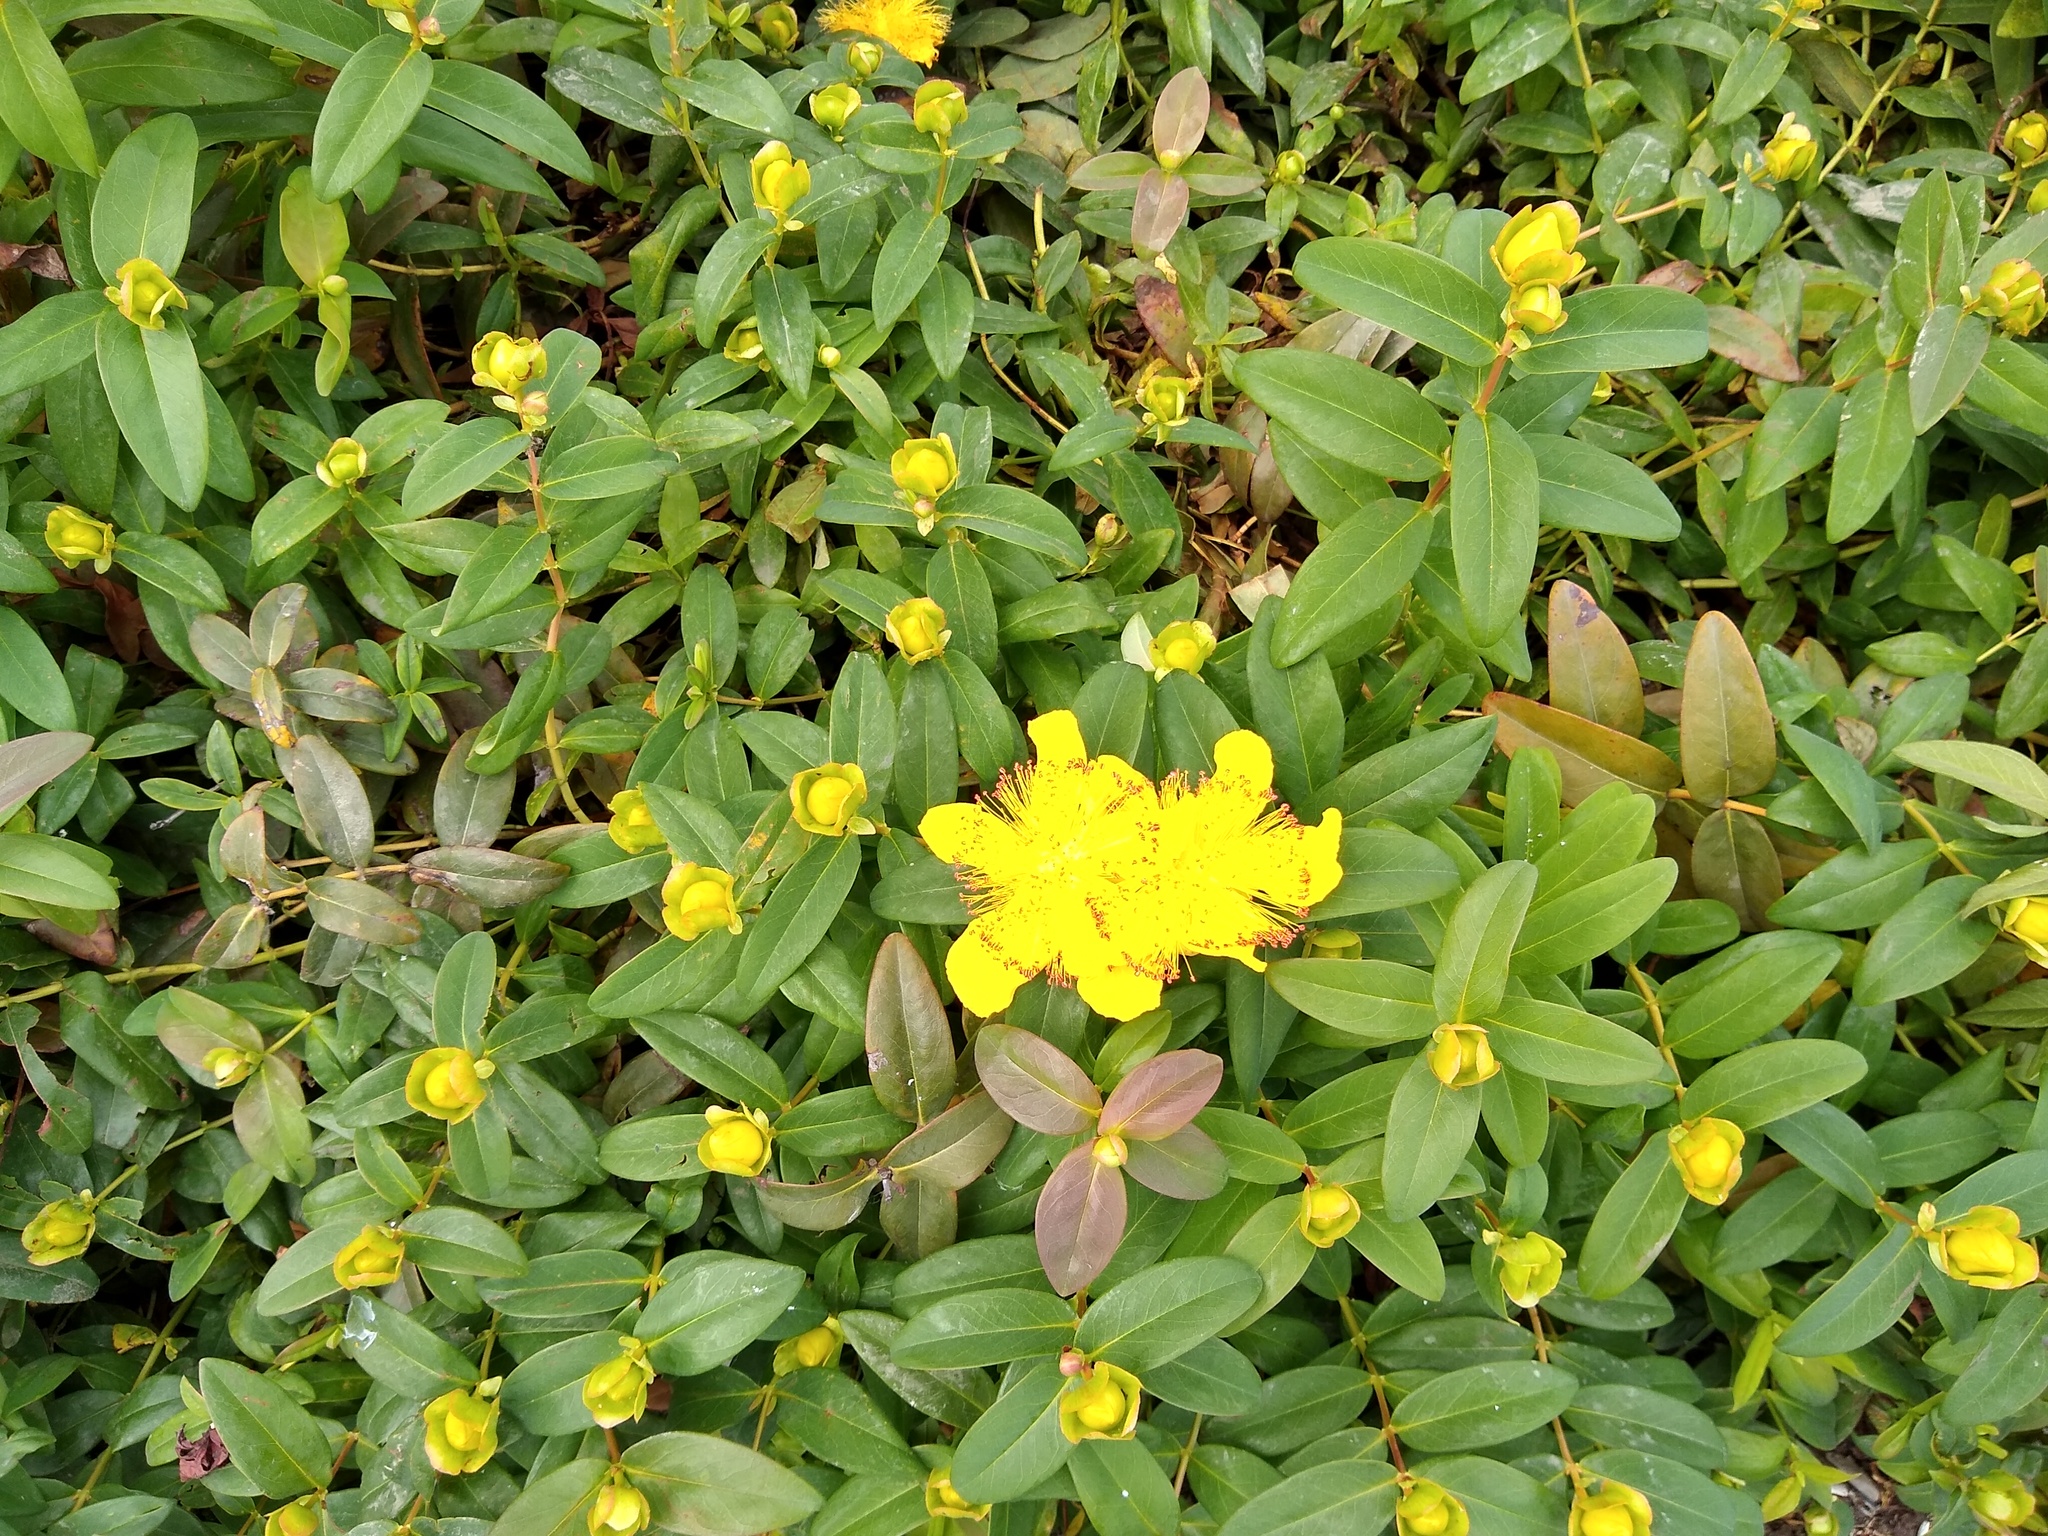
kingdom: Plantae
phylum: Tracheophyta
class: Magnoliopsida
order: Malpighiales
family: Hypericaceae
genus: Hypericum
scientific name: Hypericum perforatum
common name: Common st. johnswort
